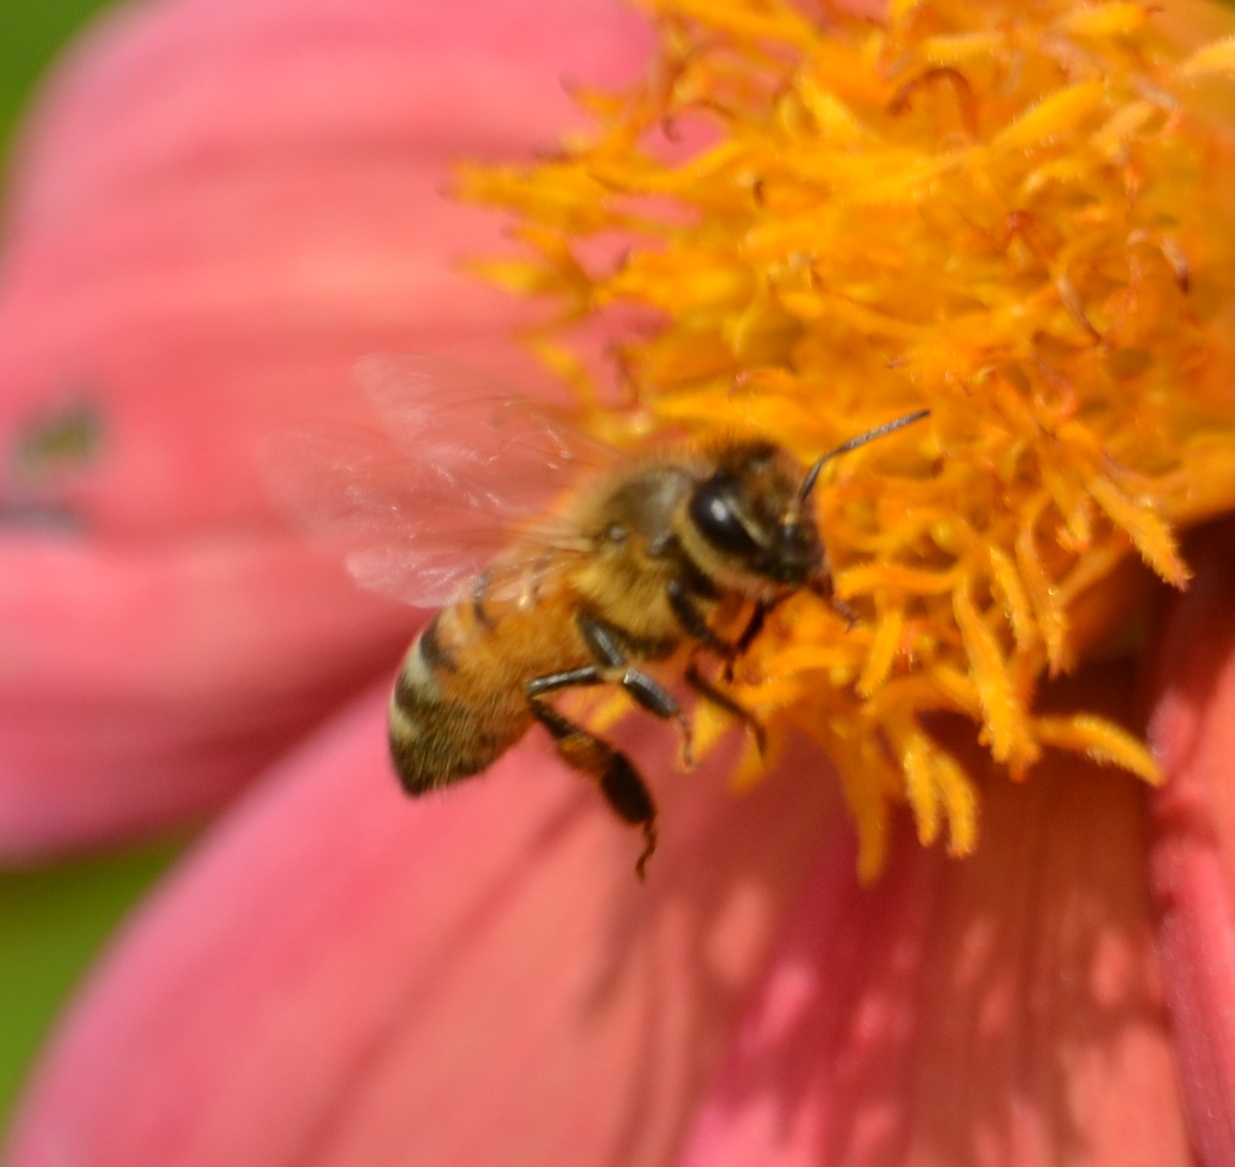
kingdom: Animalia
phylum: Arthropoda
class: Insecta
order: Hymenoptera
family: Apidae
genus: Apis
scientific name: Apis mellifera
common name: Honey bee
